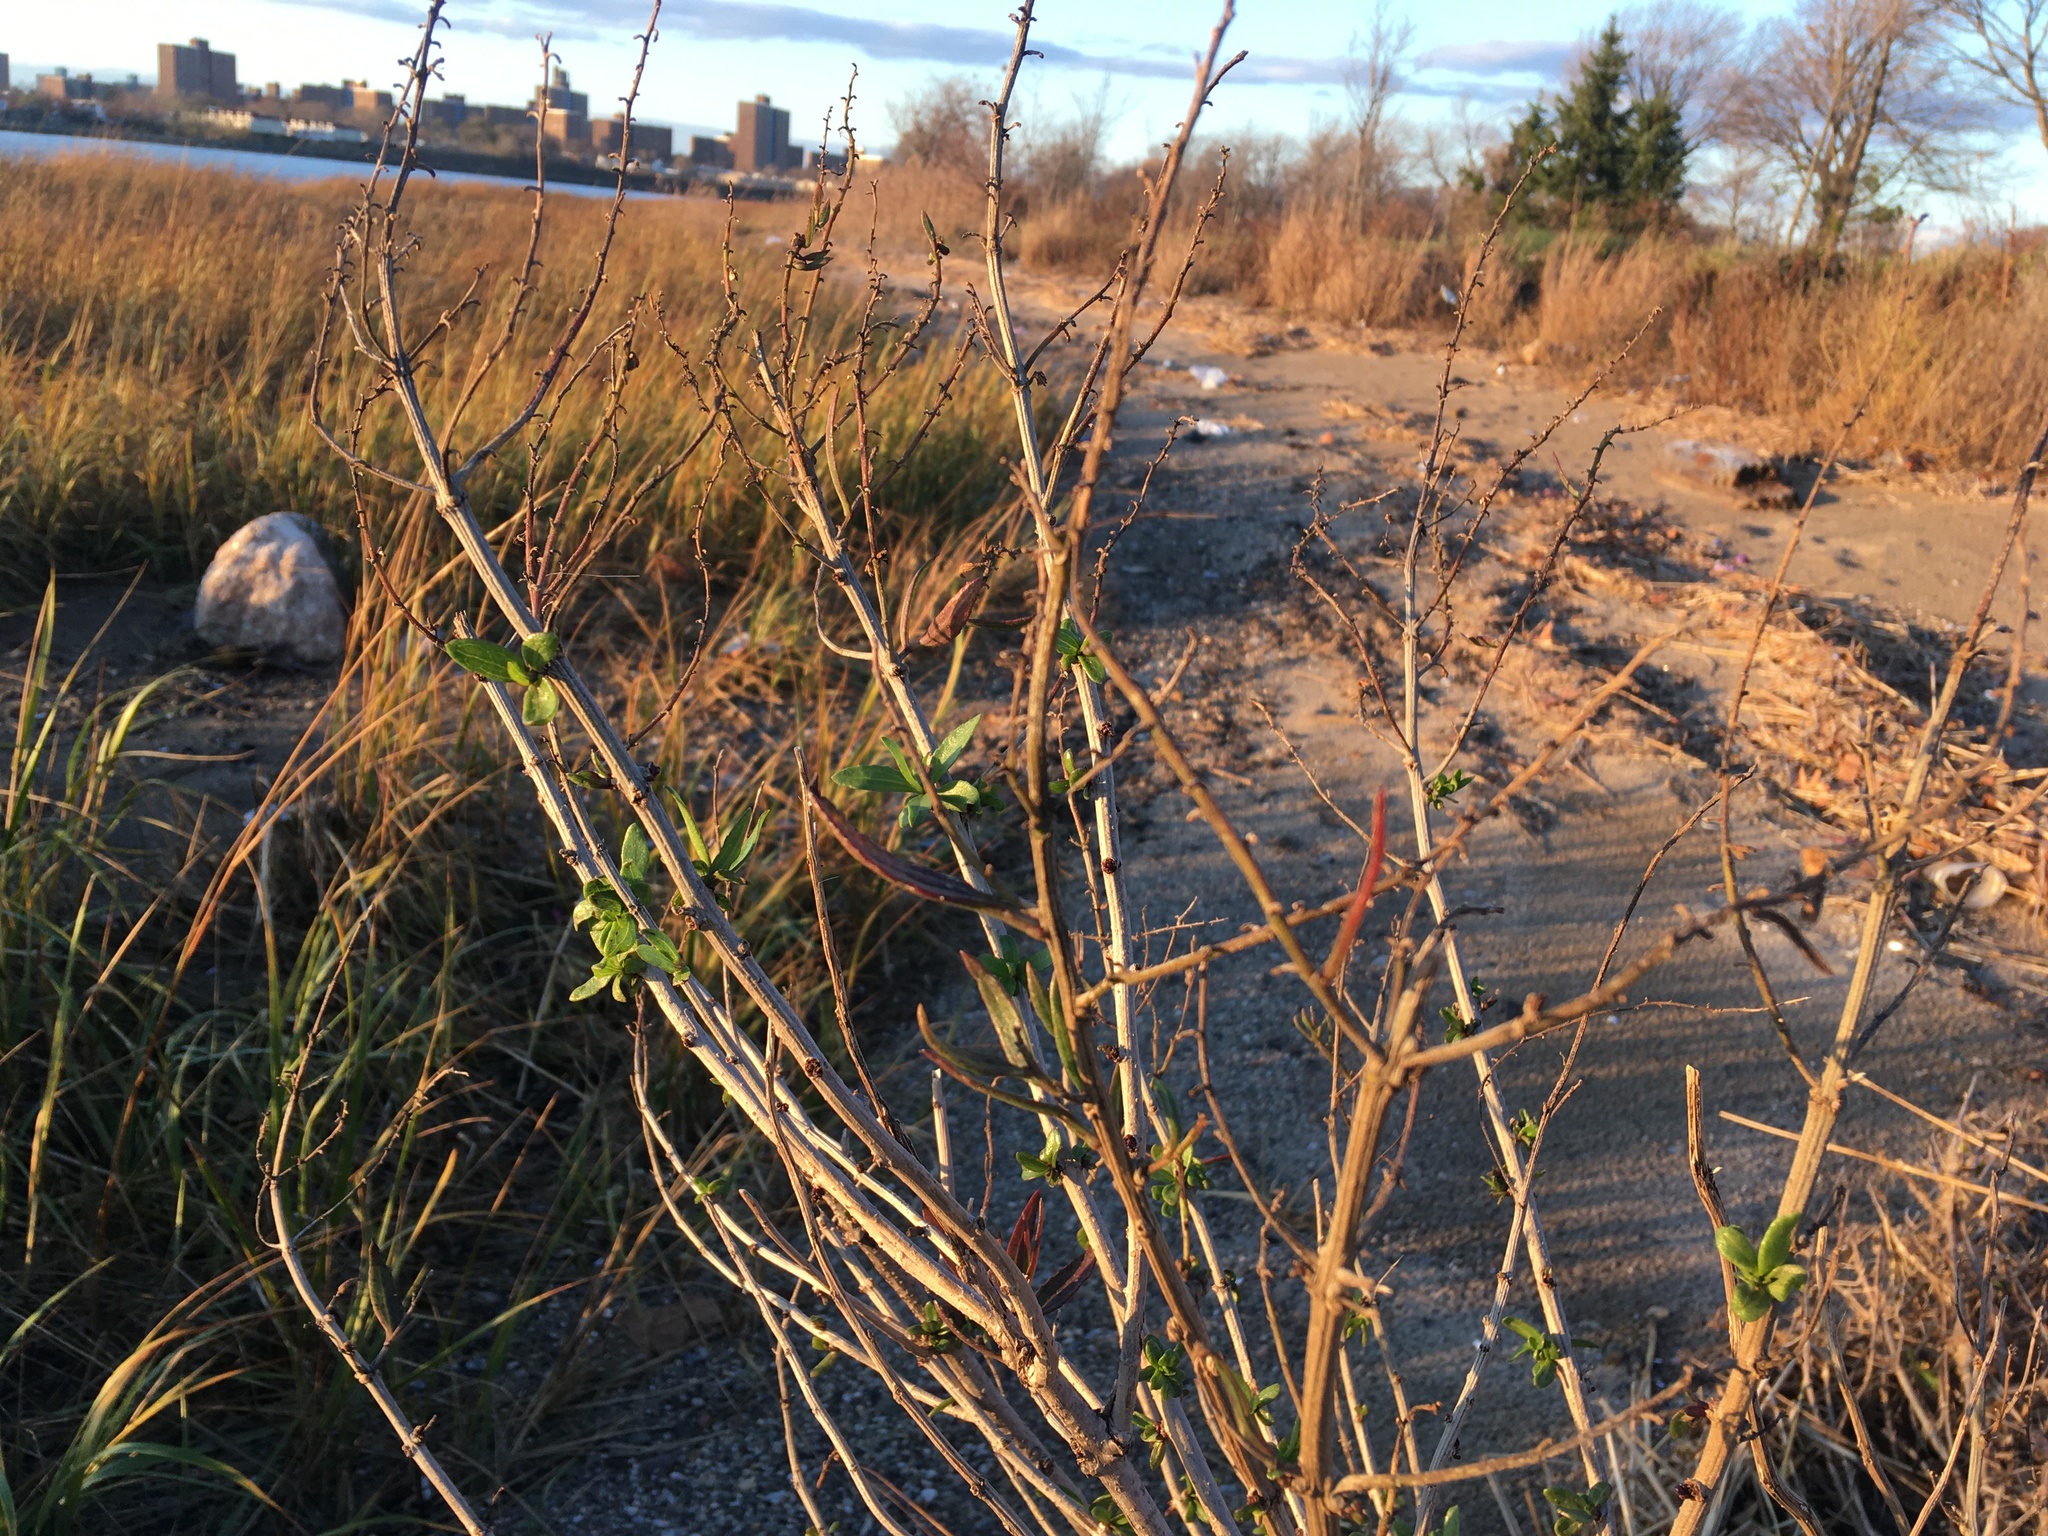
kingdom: Plantae
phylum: Tracheophyta
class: Magnoliopsida
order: Asterales
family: Asteraceae
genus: Iva
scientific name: Iva frutescens
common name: Big-leaved marsh-elder
